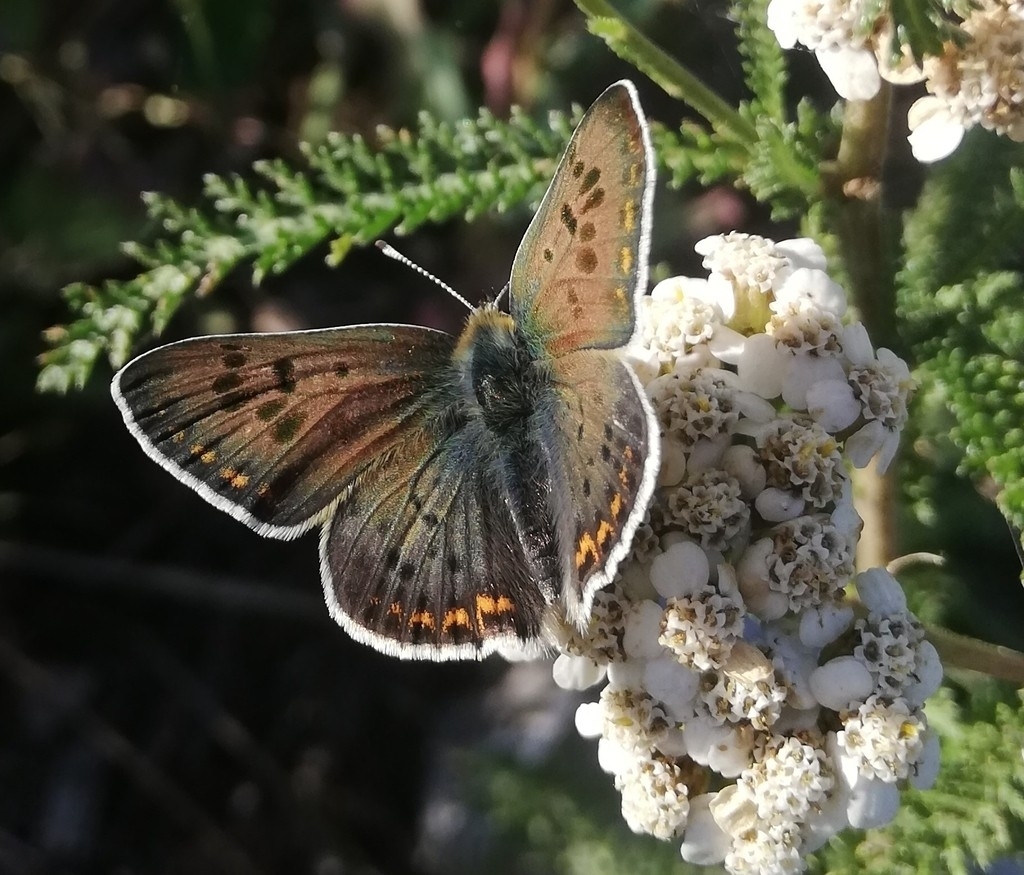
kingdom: Animalia
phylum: Arthropoda
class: Insecta
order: Lepidoptera
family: Lycaenidae
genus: Loweia
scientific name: Loweia tityrus
